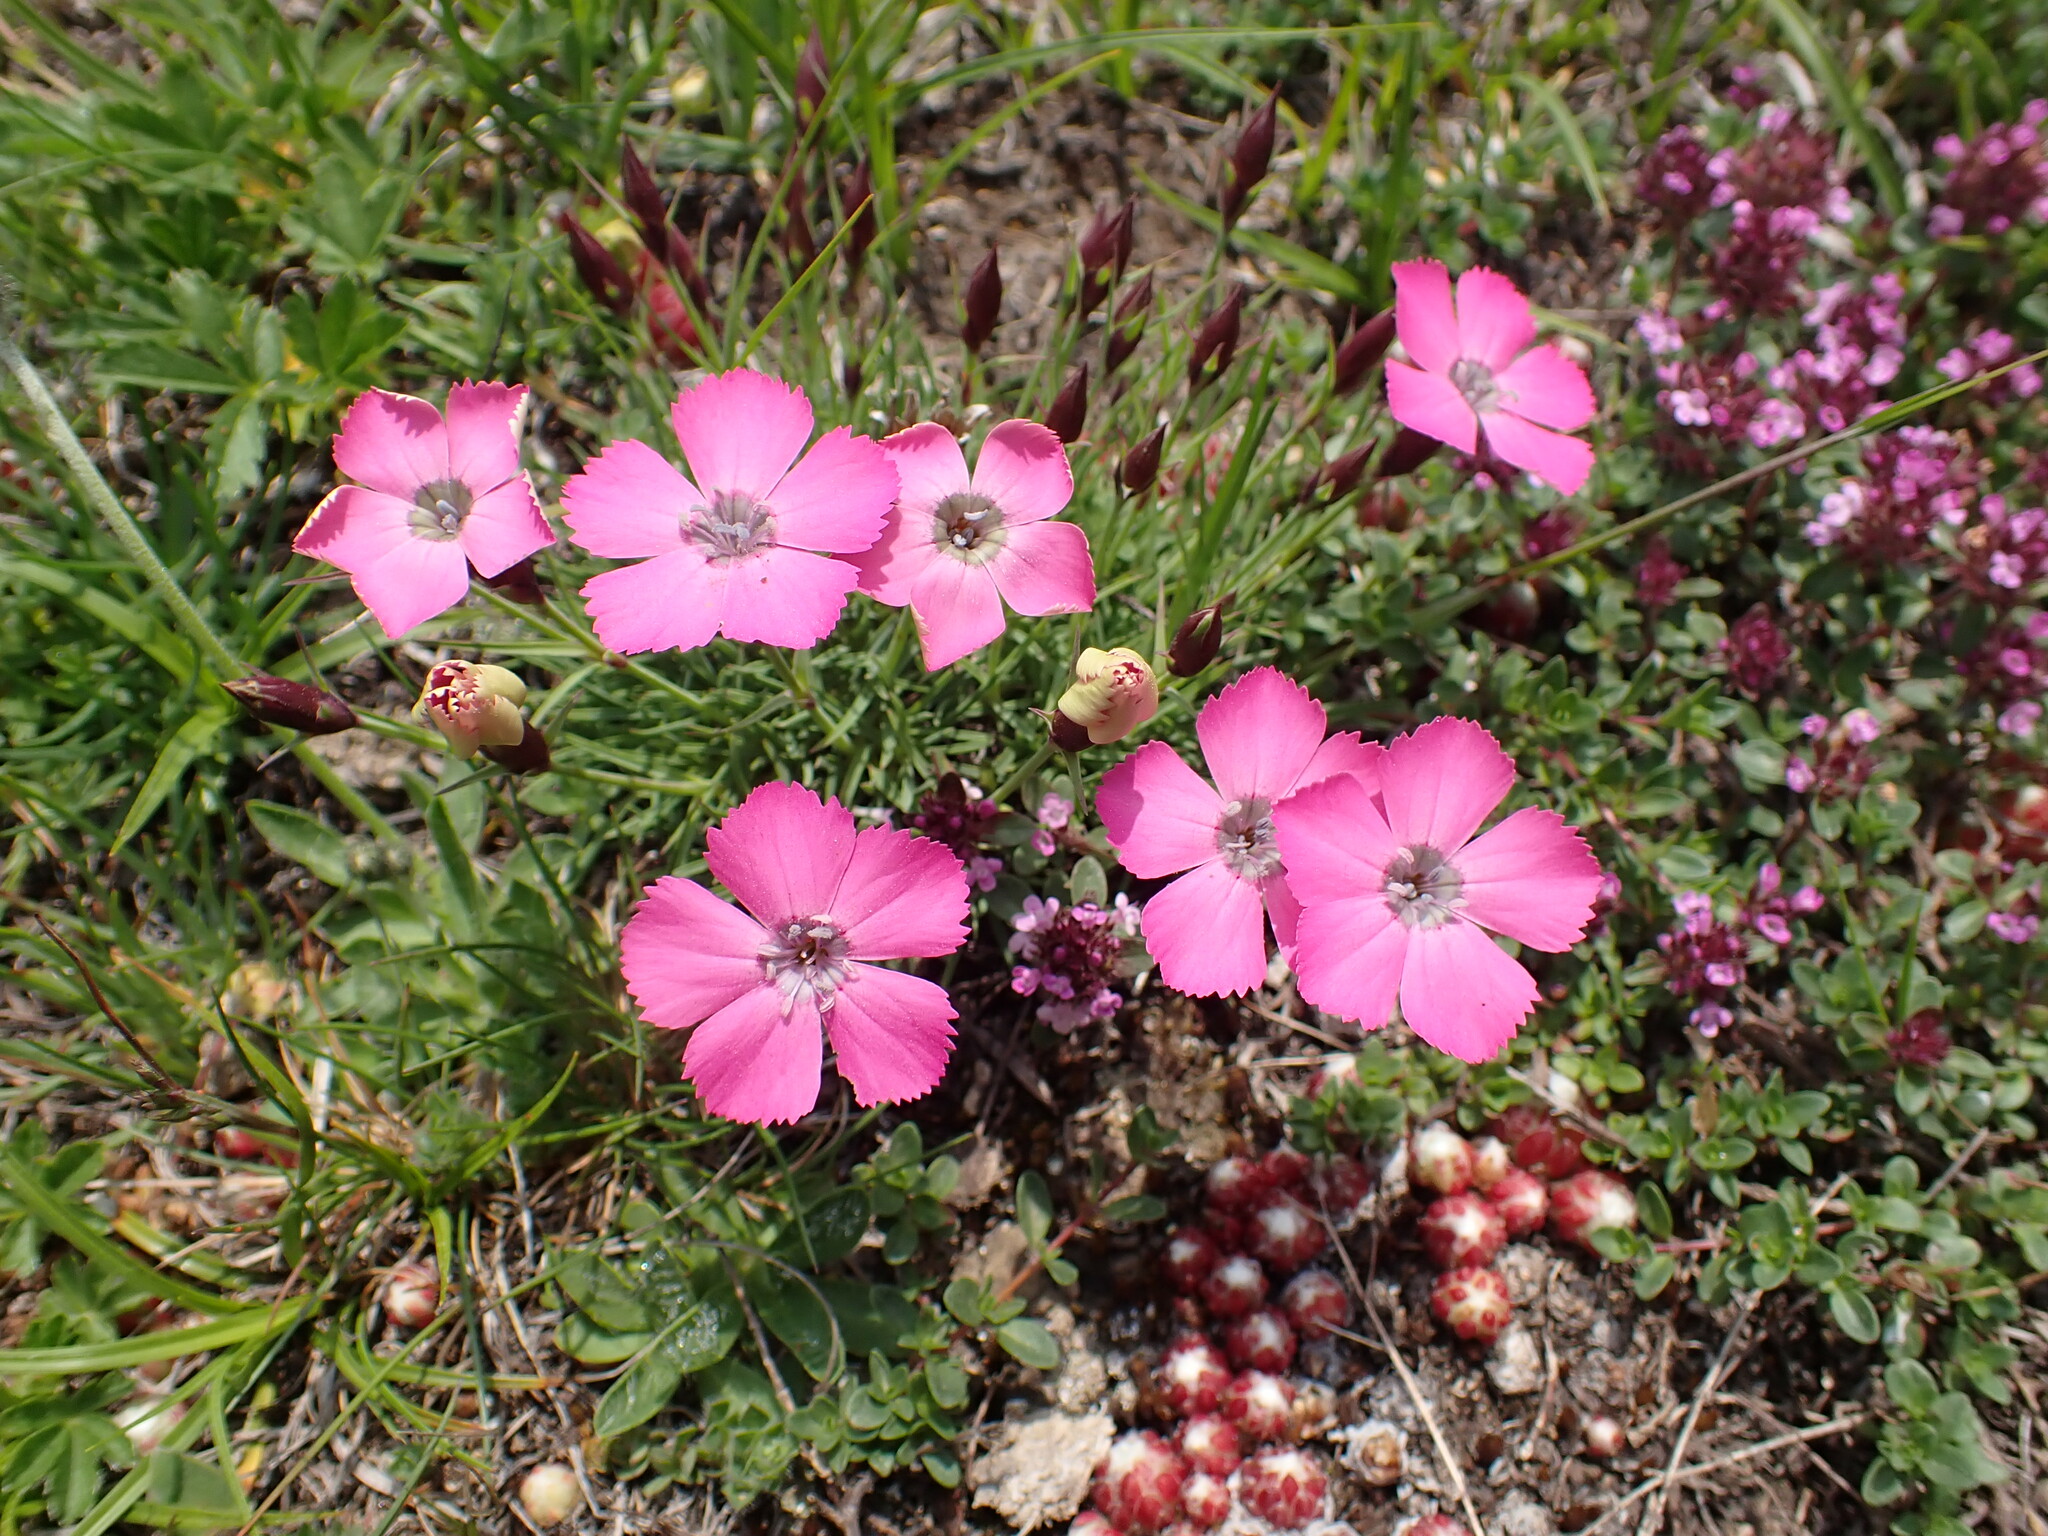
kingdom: Plantae
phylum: Tracheophyta
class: Magnoliopsida
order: Caryophyllales
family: Caryophyllaceae
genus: Dianthus
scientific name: Dianthus pavonius
